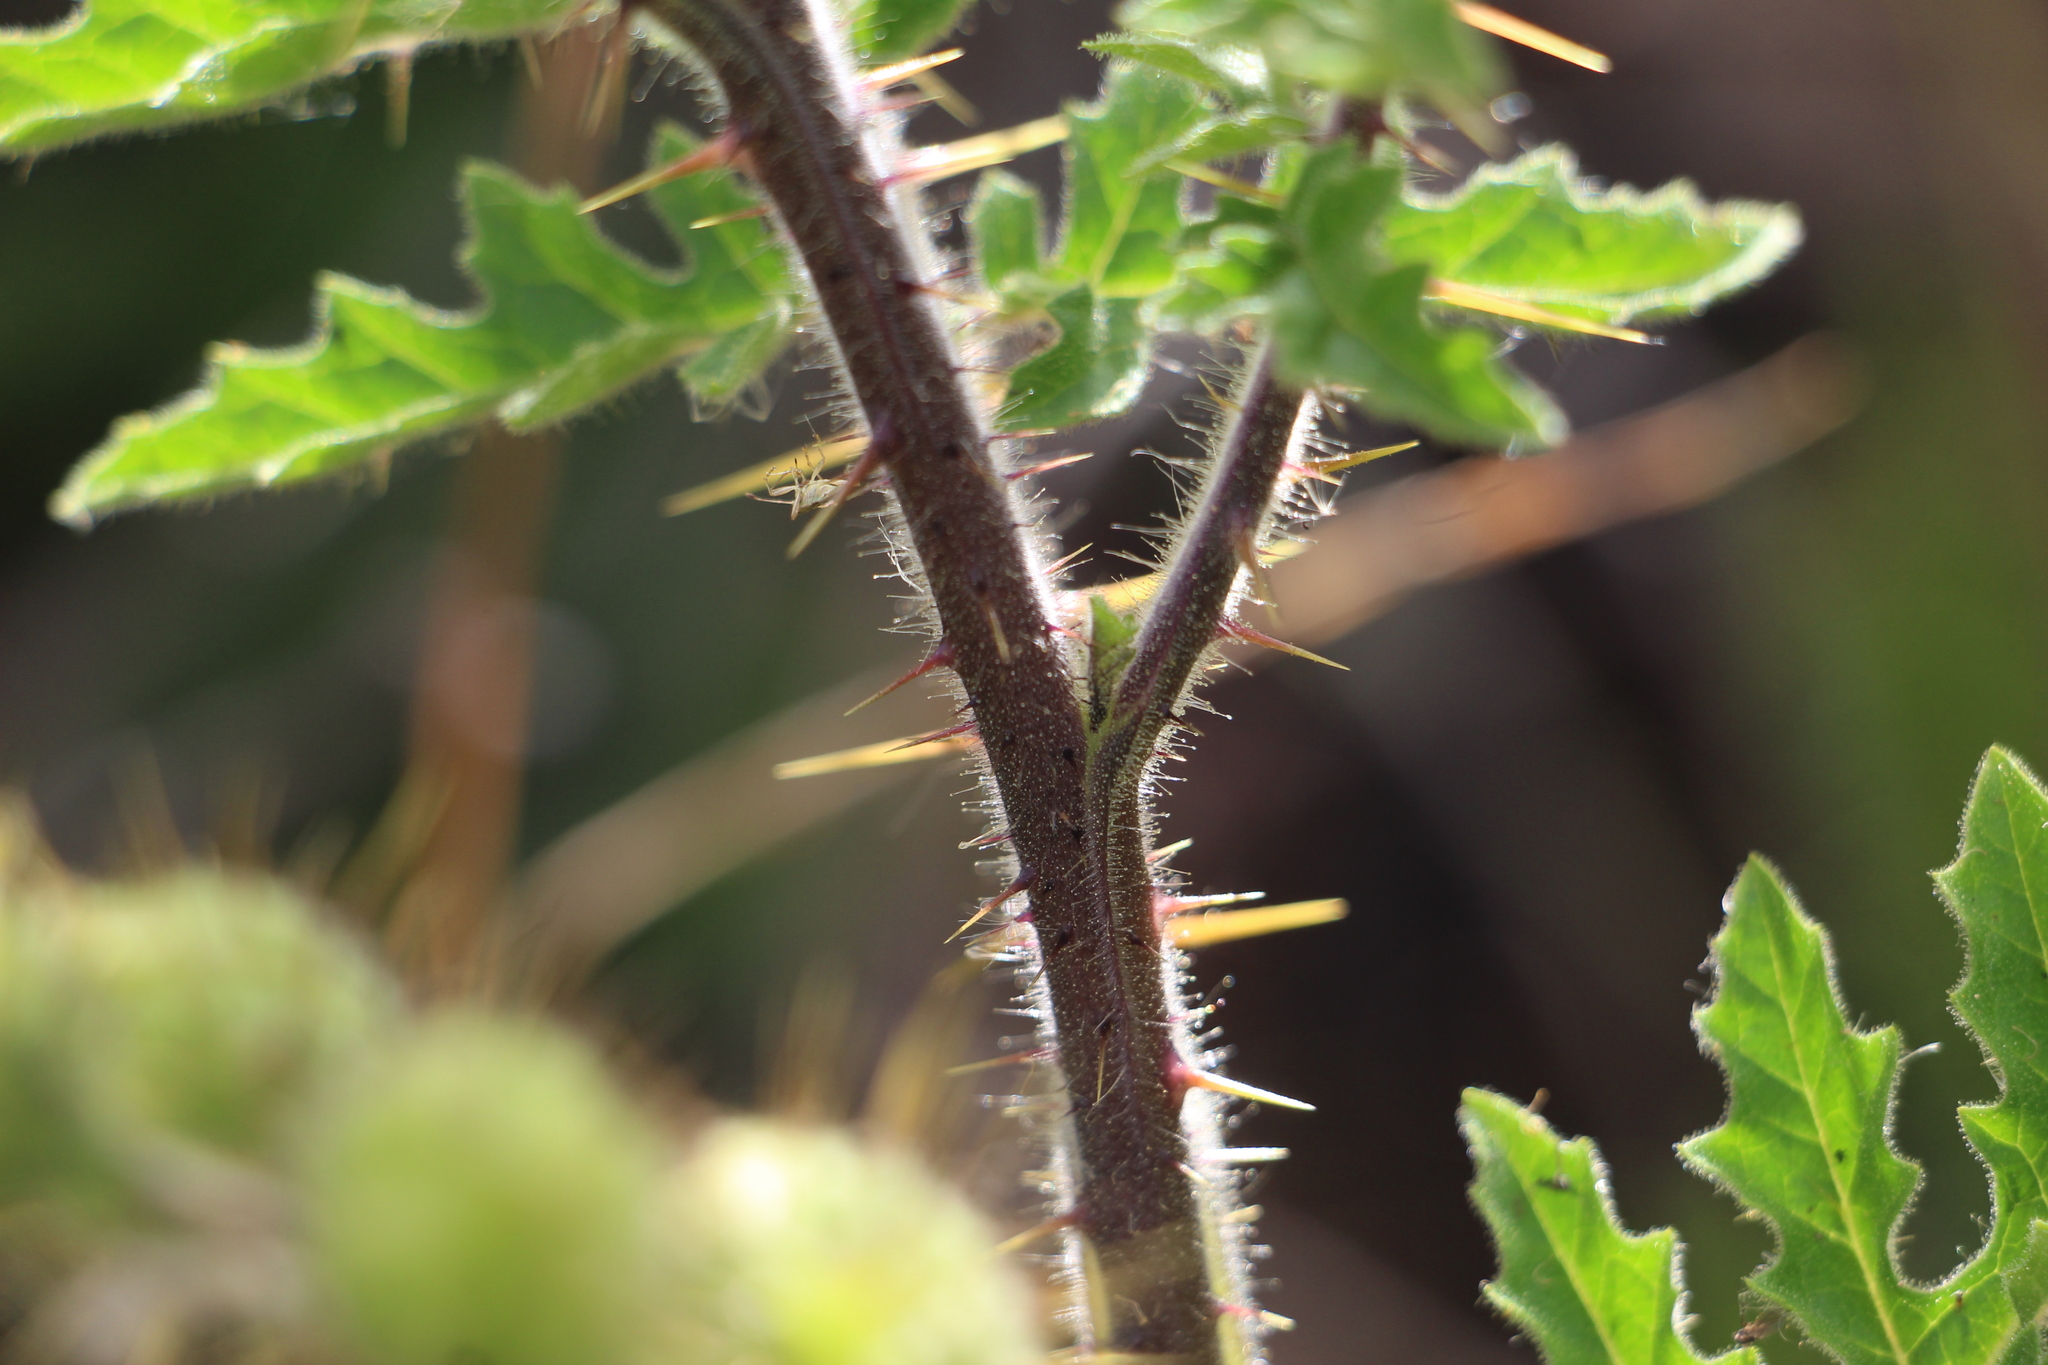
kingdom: Plantae
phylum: Tracheophyta
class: Magnoliopsida
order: Solanales
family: Solanaceae
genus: Solanum
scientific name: Solanum sisymbriifolium
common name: Red buffalo-bur
